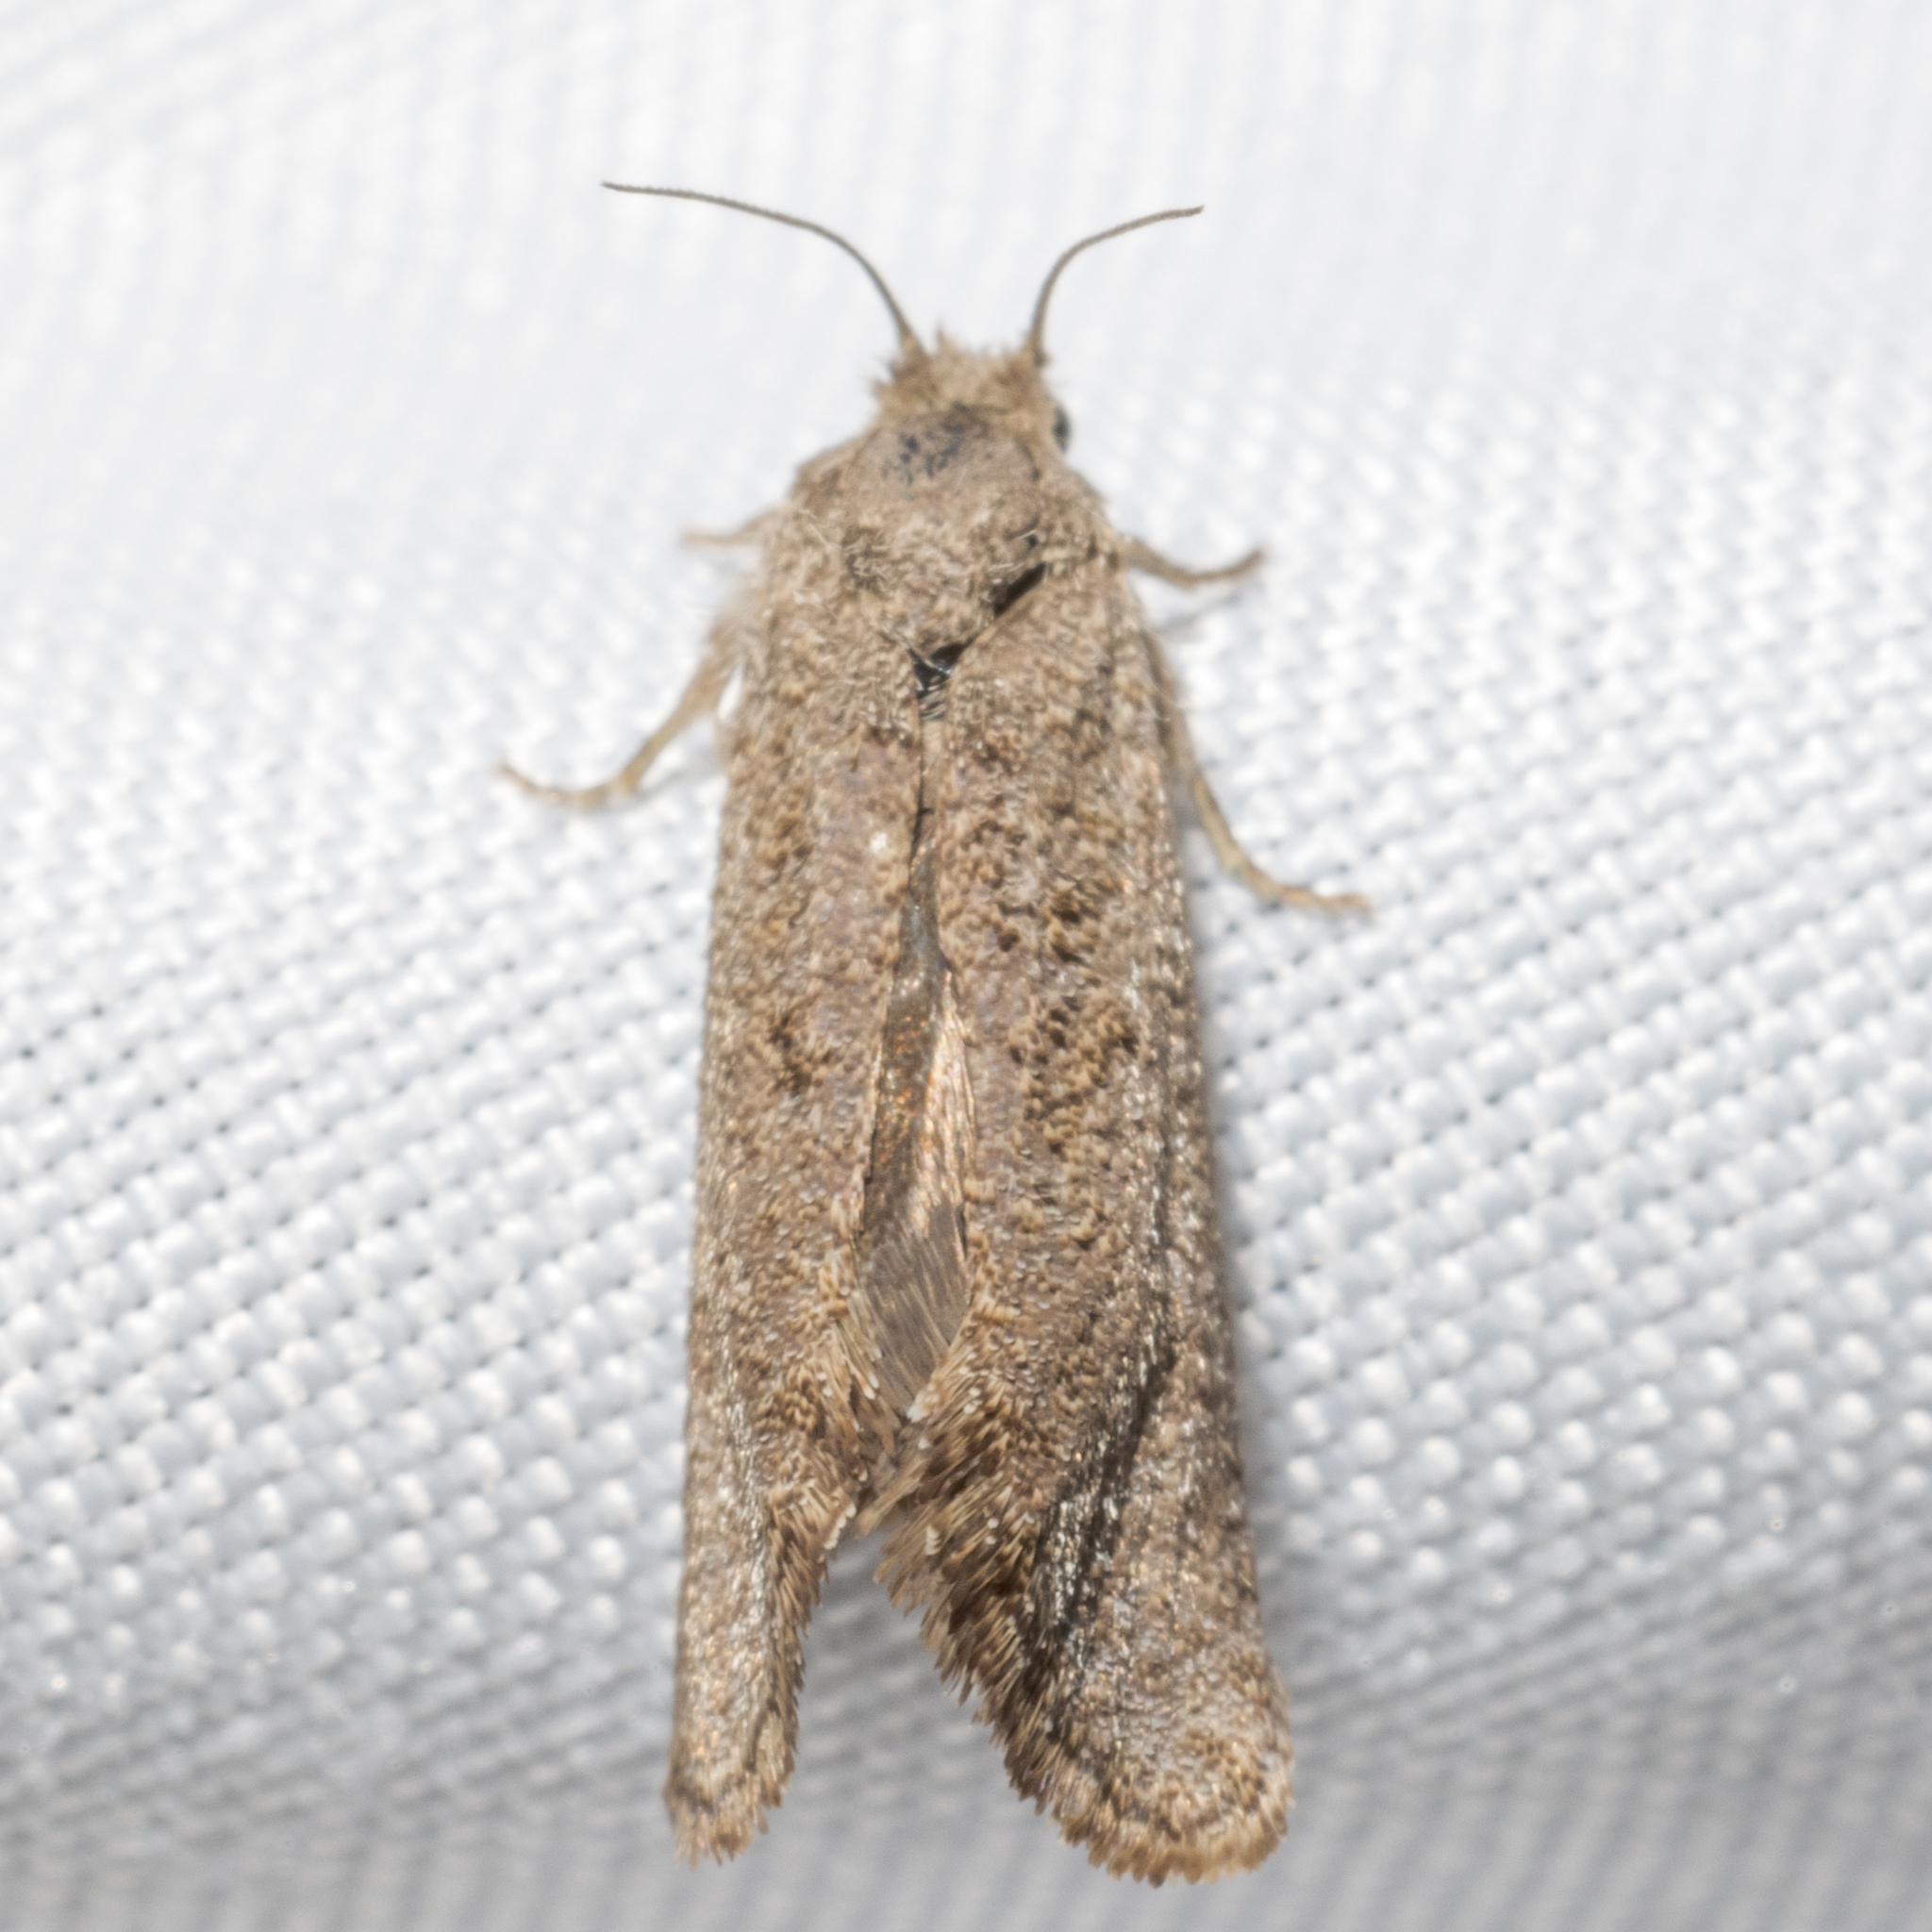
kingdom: Animalia
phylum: Arthropoda
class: Insecta
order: Lepidoptera
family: Tineidae
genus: Acrolophus
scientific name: Acrolophus heppneri
